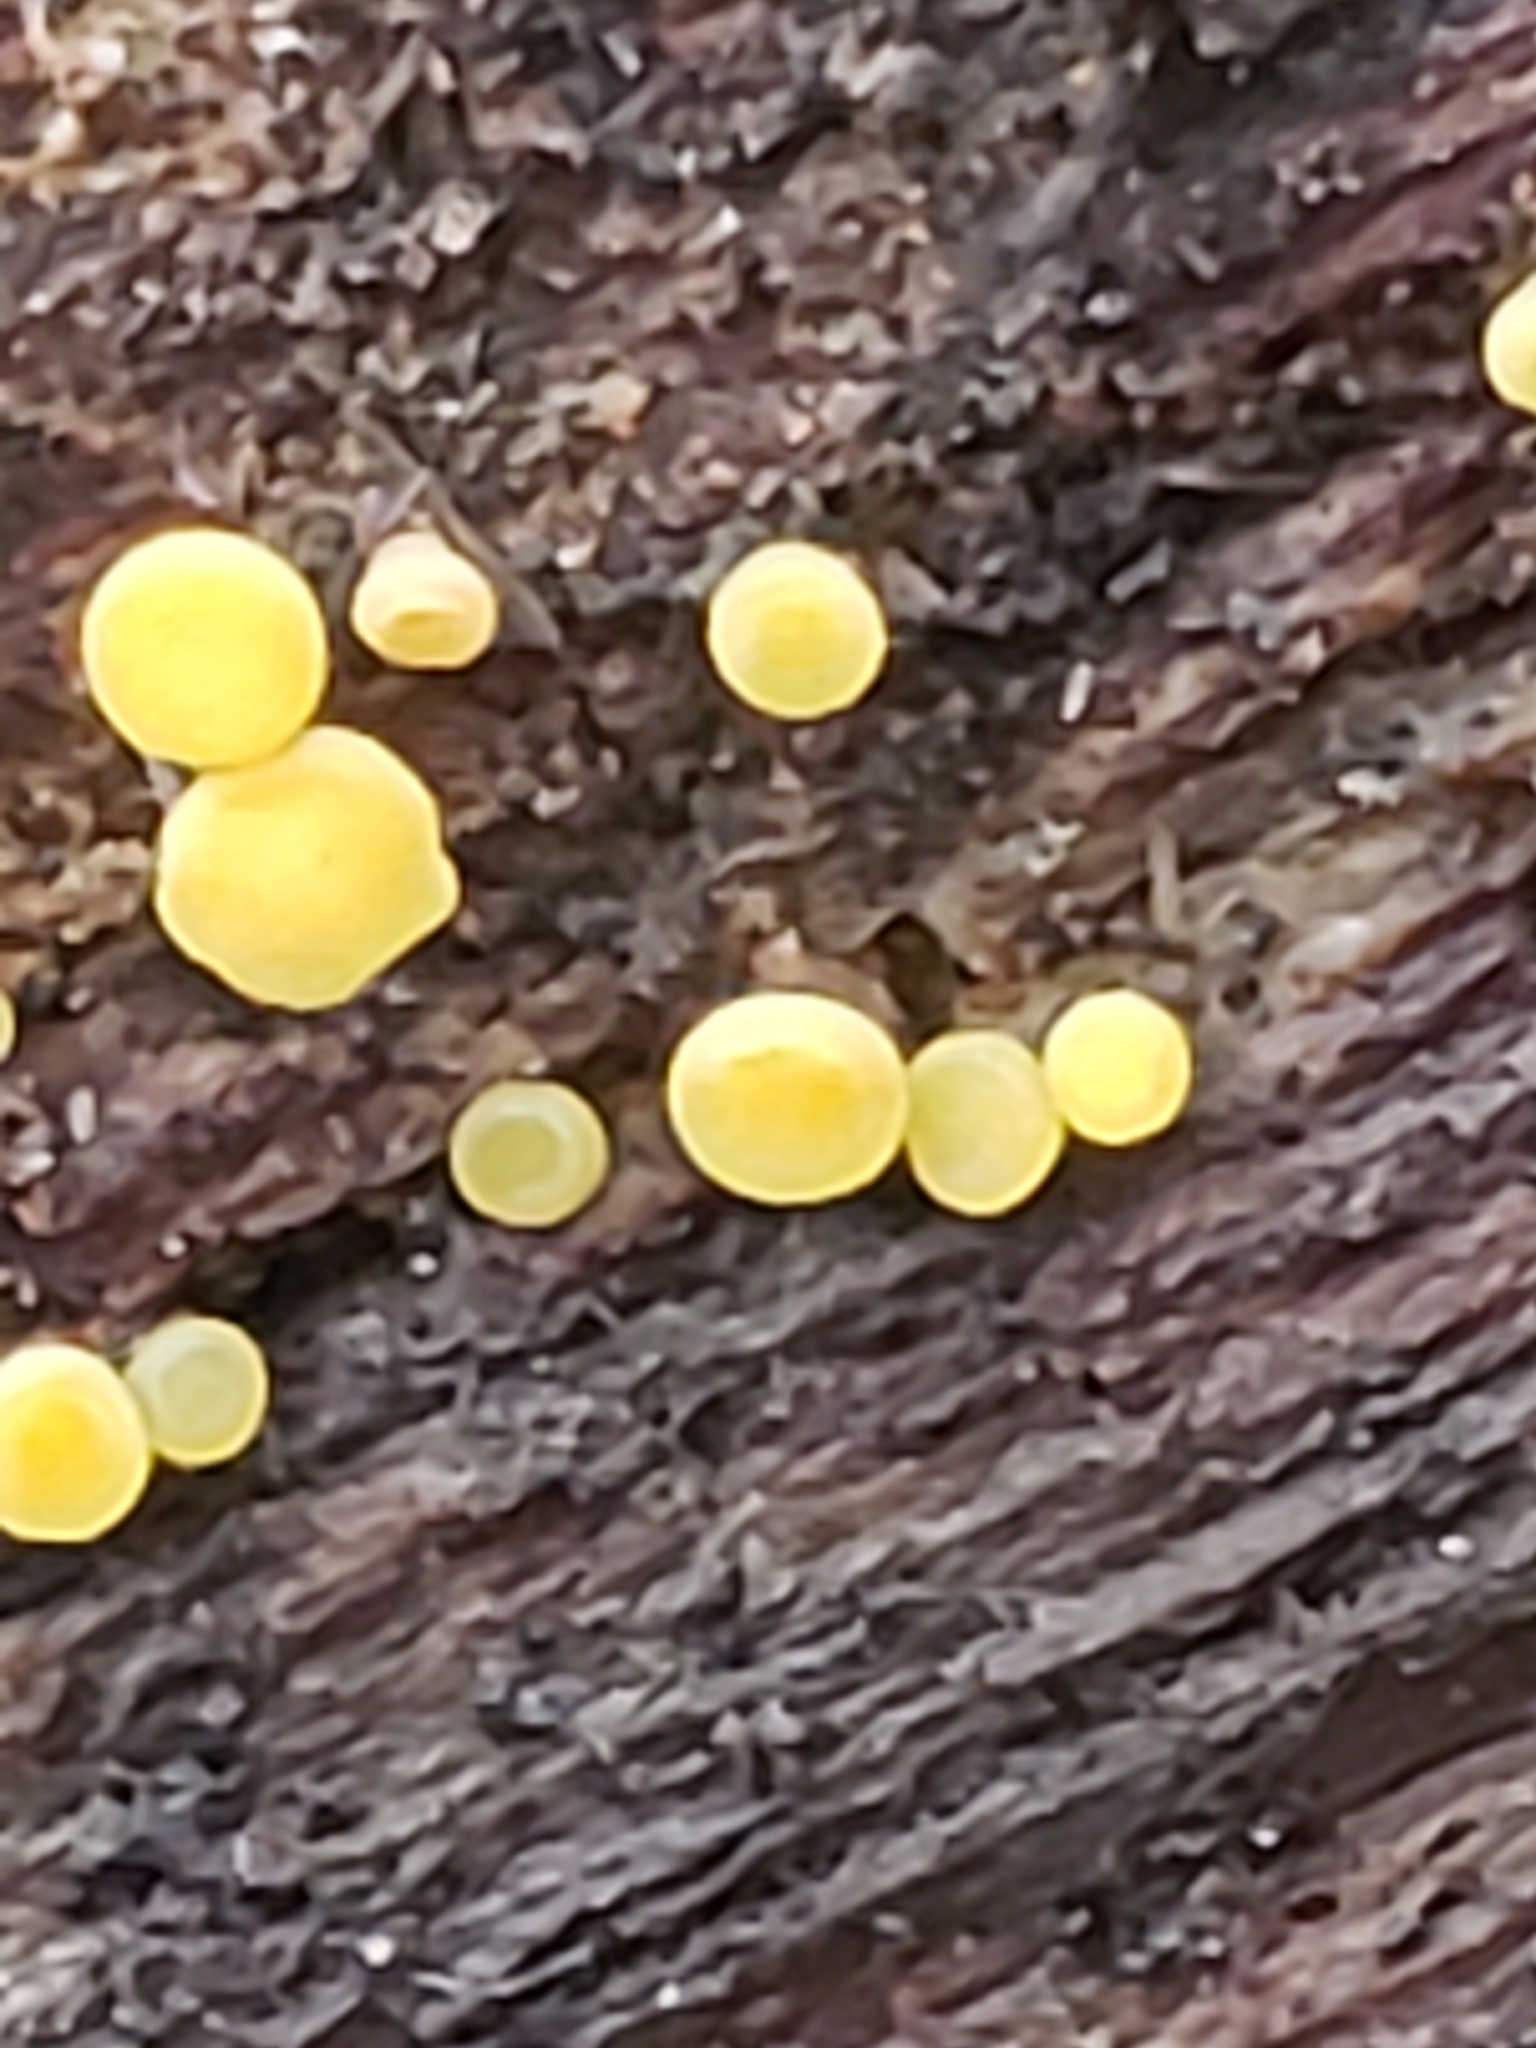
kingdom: Fungi
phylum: Ascomycota
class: Leotiomycetes
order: Helotiales
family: Pezizellaceae
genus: Calycina
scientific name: Calycina citrina
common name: Yellow fairy cups
